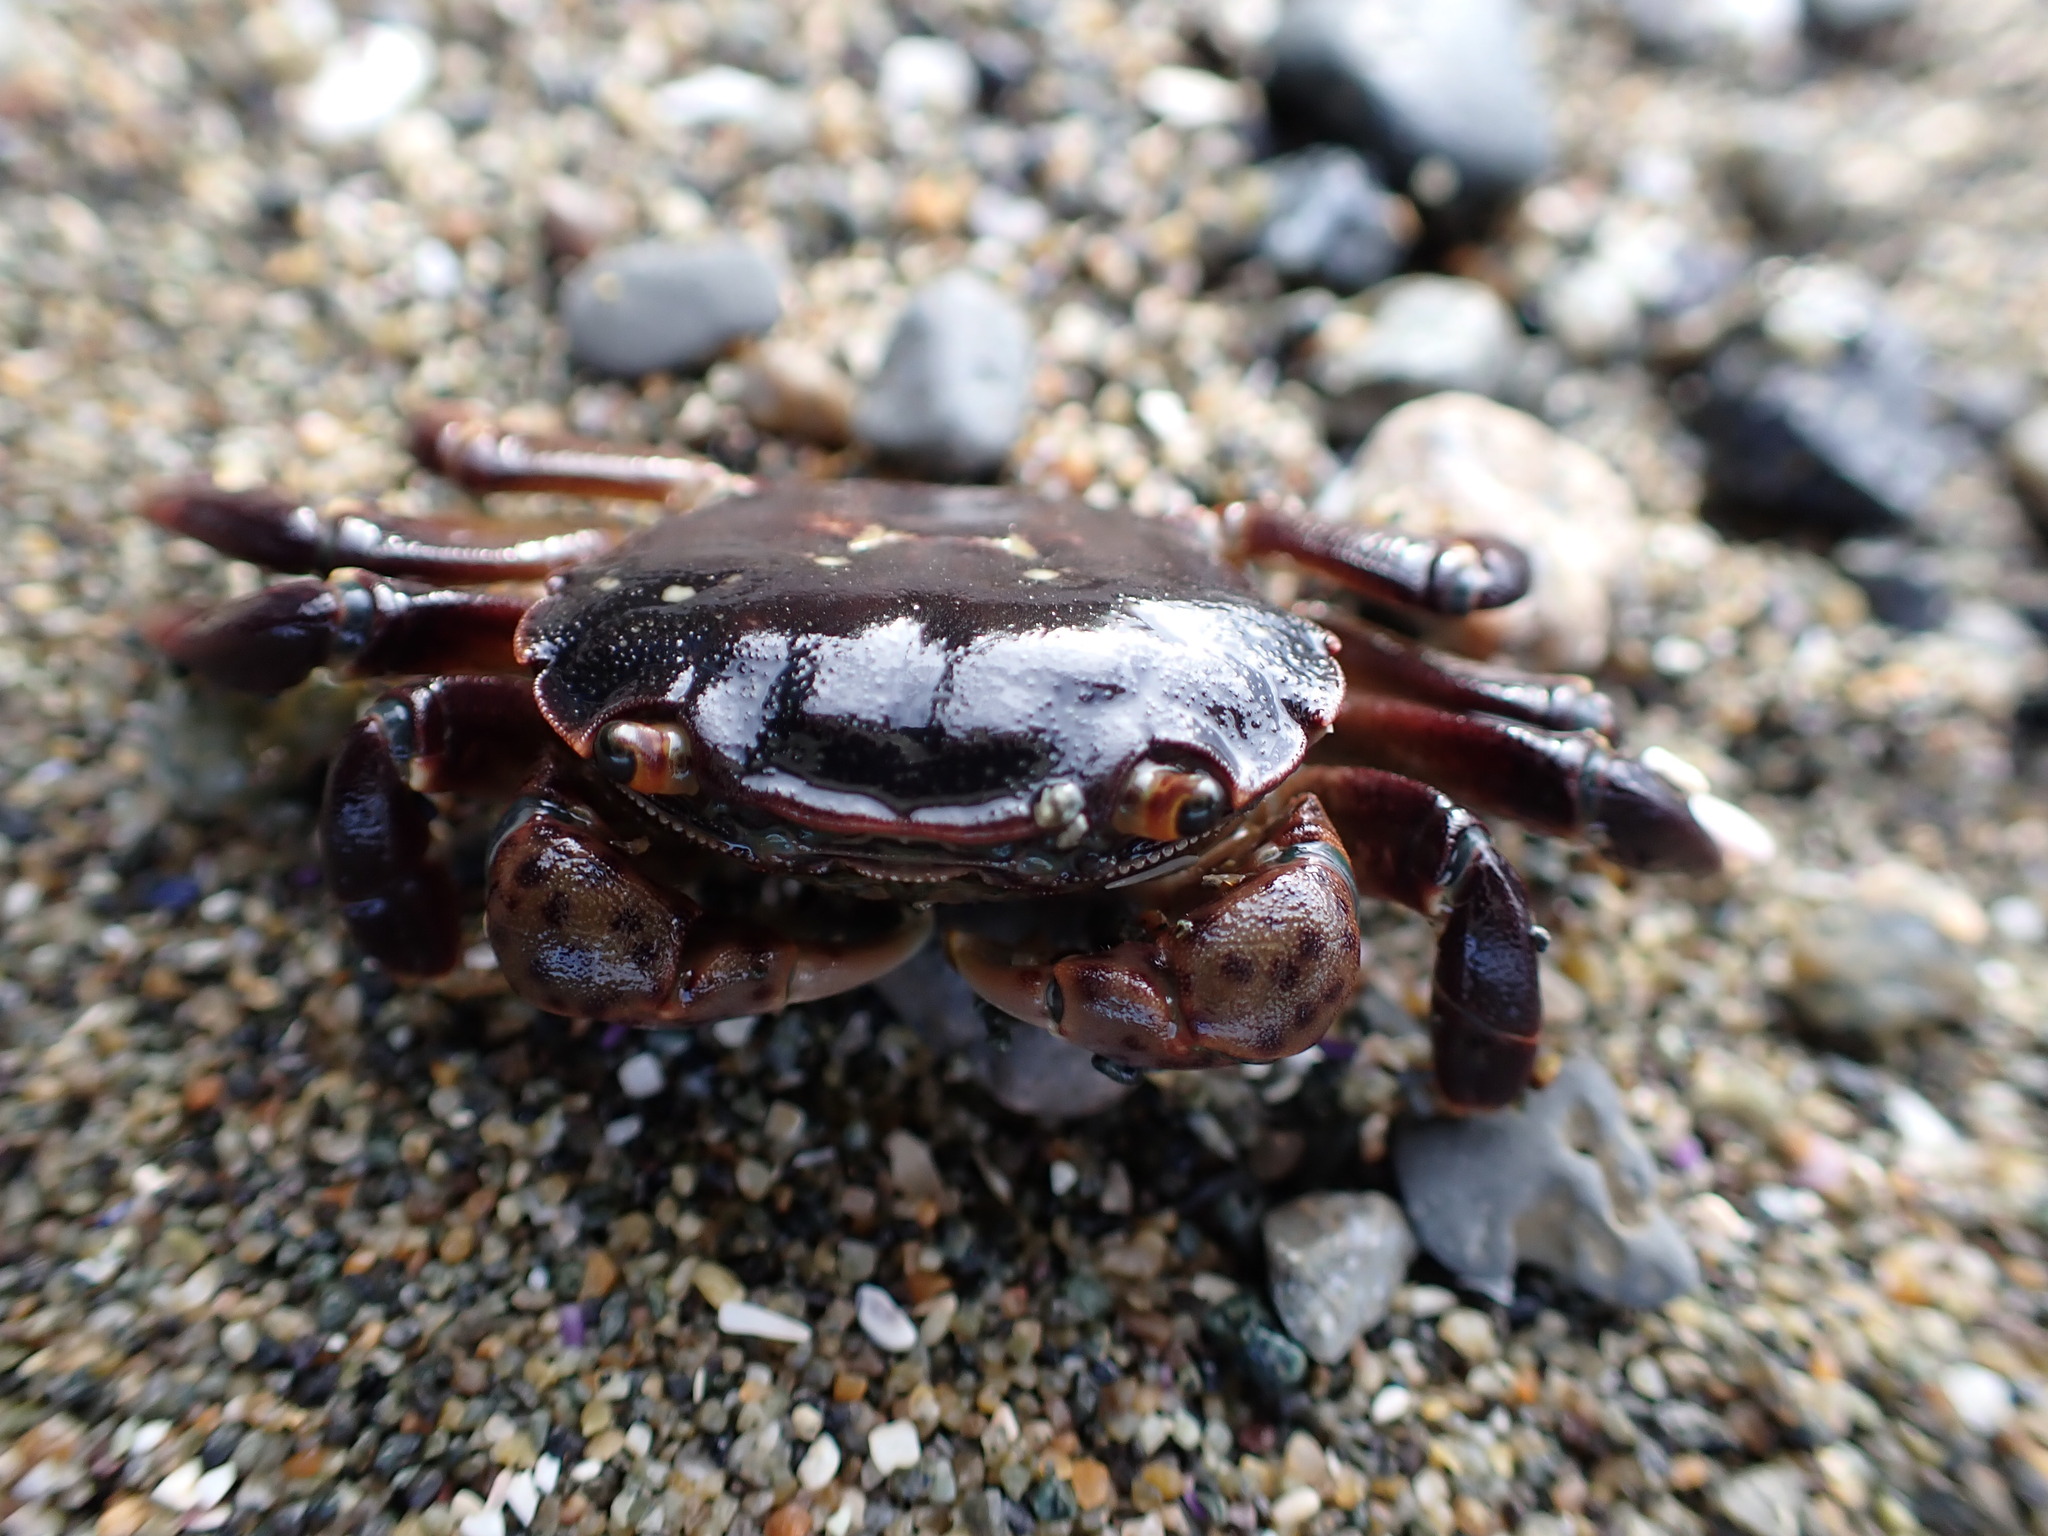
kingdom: Animalia
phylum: Arthropoda
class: Malacostraca
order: Decapoda
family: Varunidae
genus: Hemigrapsus
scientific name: Hemigrapsus nudus
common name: Purple shore crab
